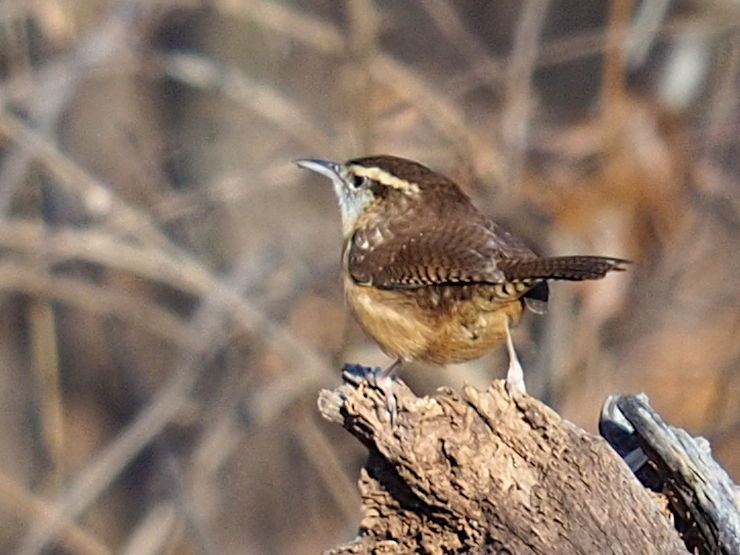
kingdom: Animalia
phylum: Chordata
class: Aves
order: Passeriformes
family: Troglodytidae
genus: Thryothorus
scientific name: Thryothorus ludovicianus
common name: Carolina wren
